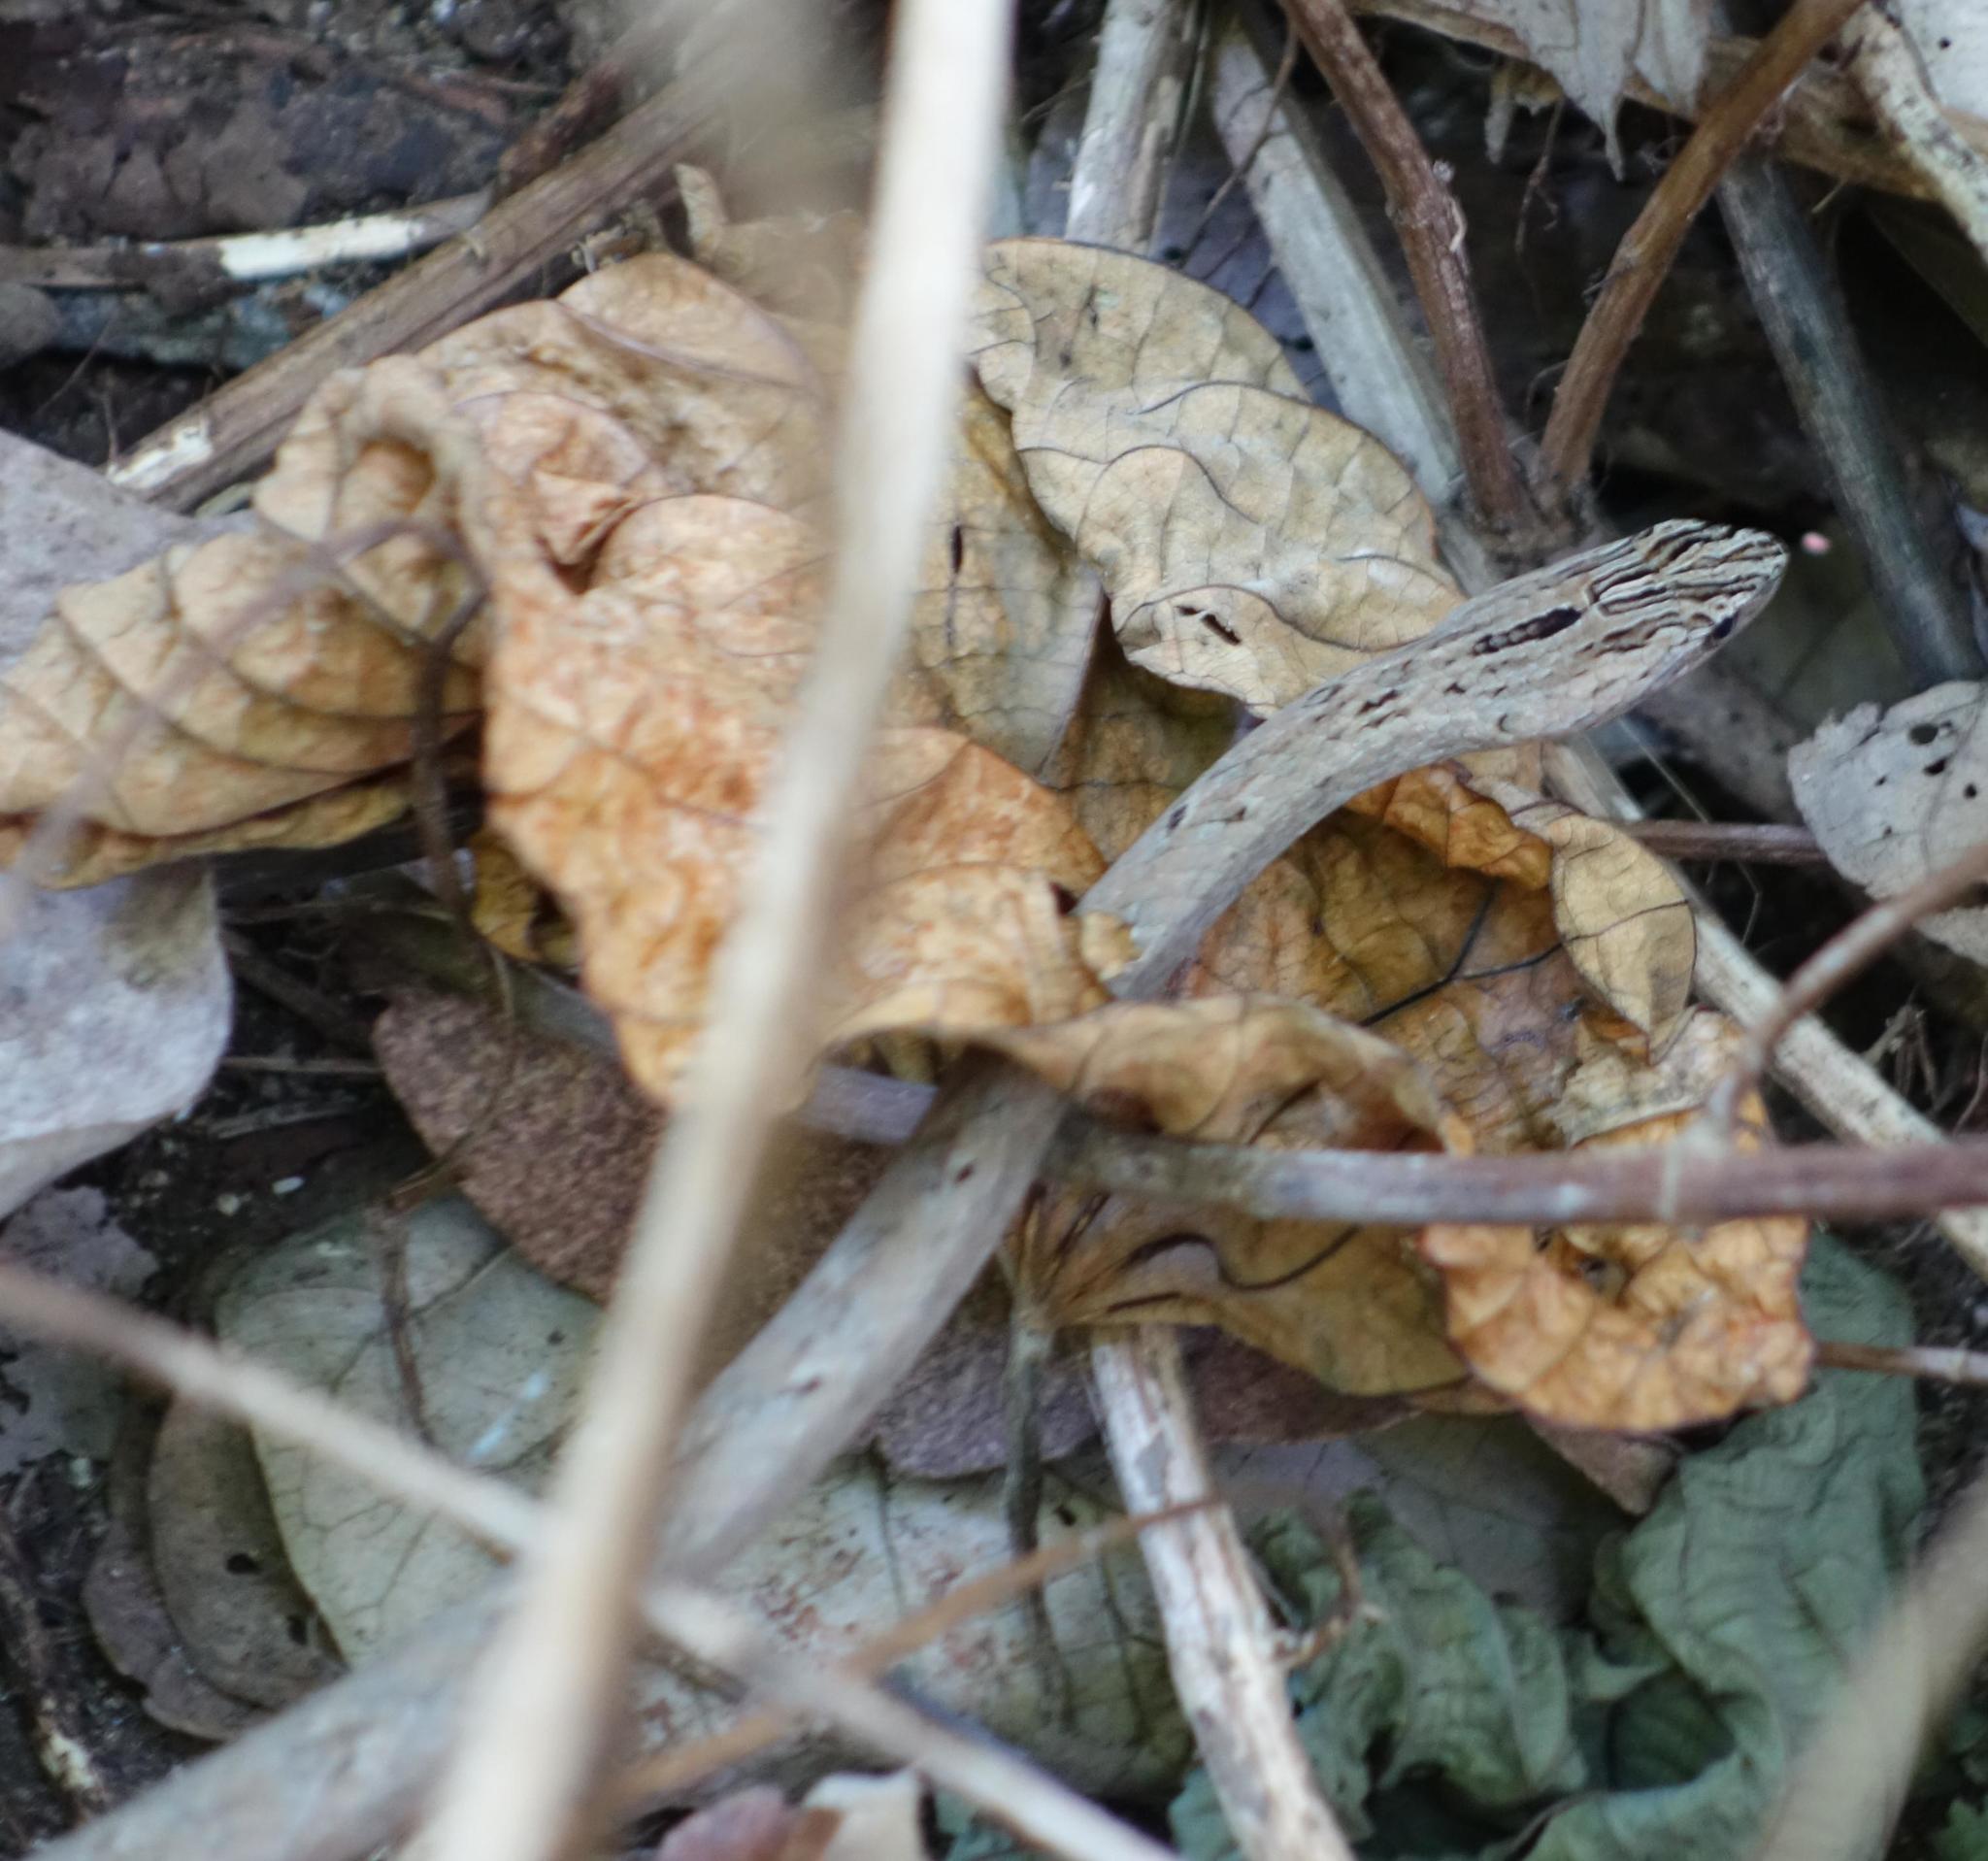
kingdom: Animalia
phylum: Chordata
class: Squamata
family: Pseudaspididae
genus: Psammodynastes
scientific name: Psammodynastes pulverulentus
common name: Common mock viper
